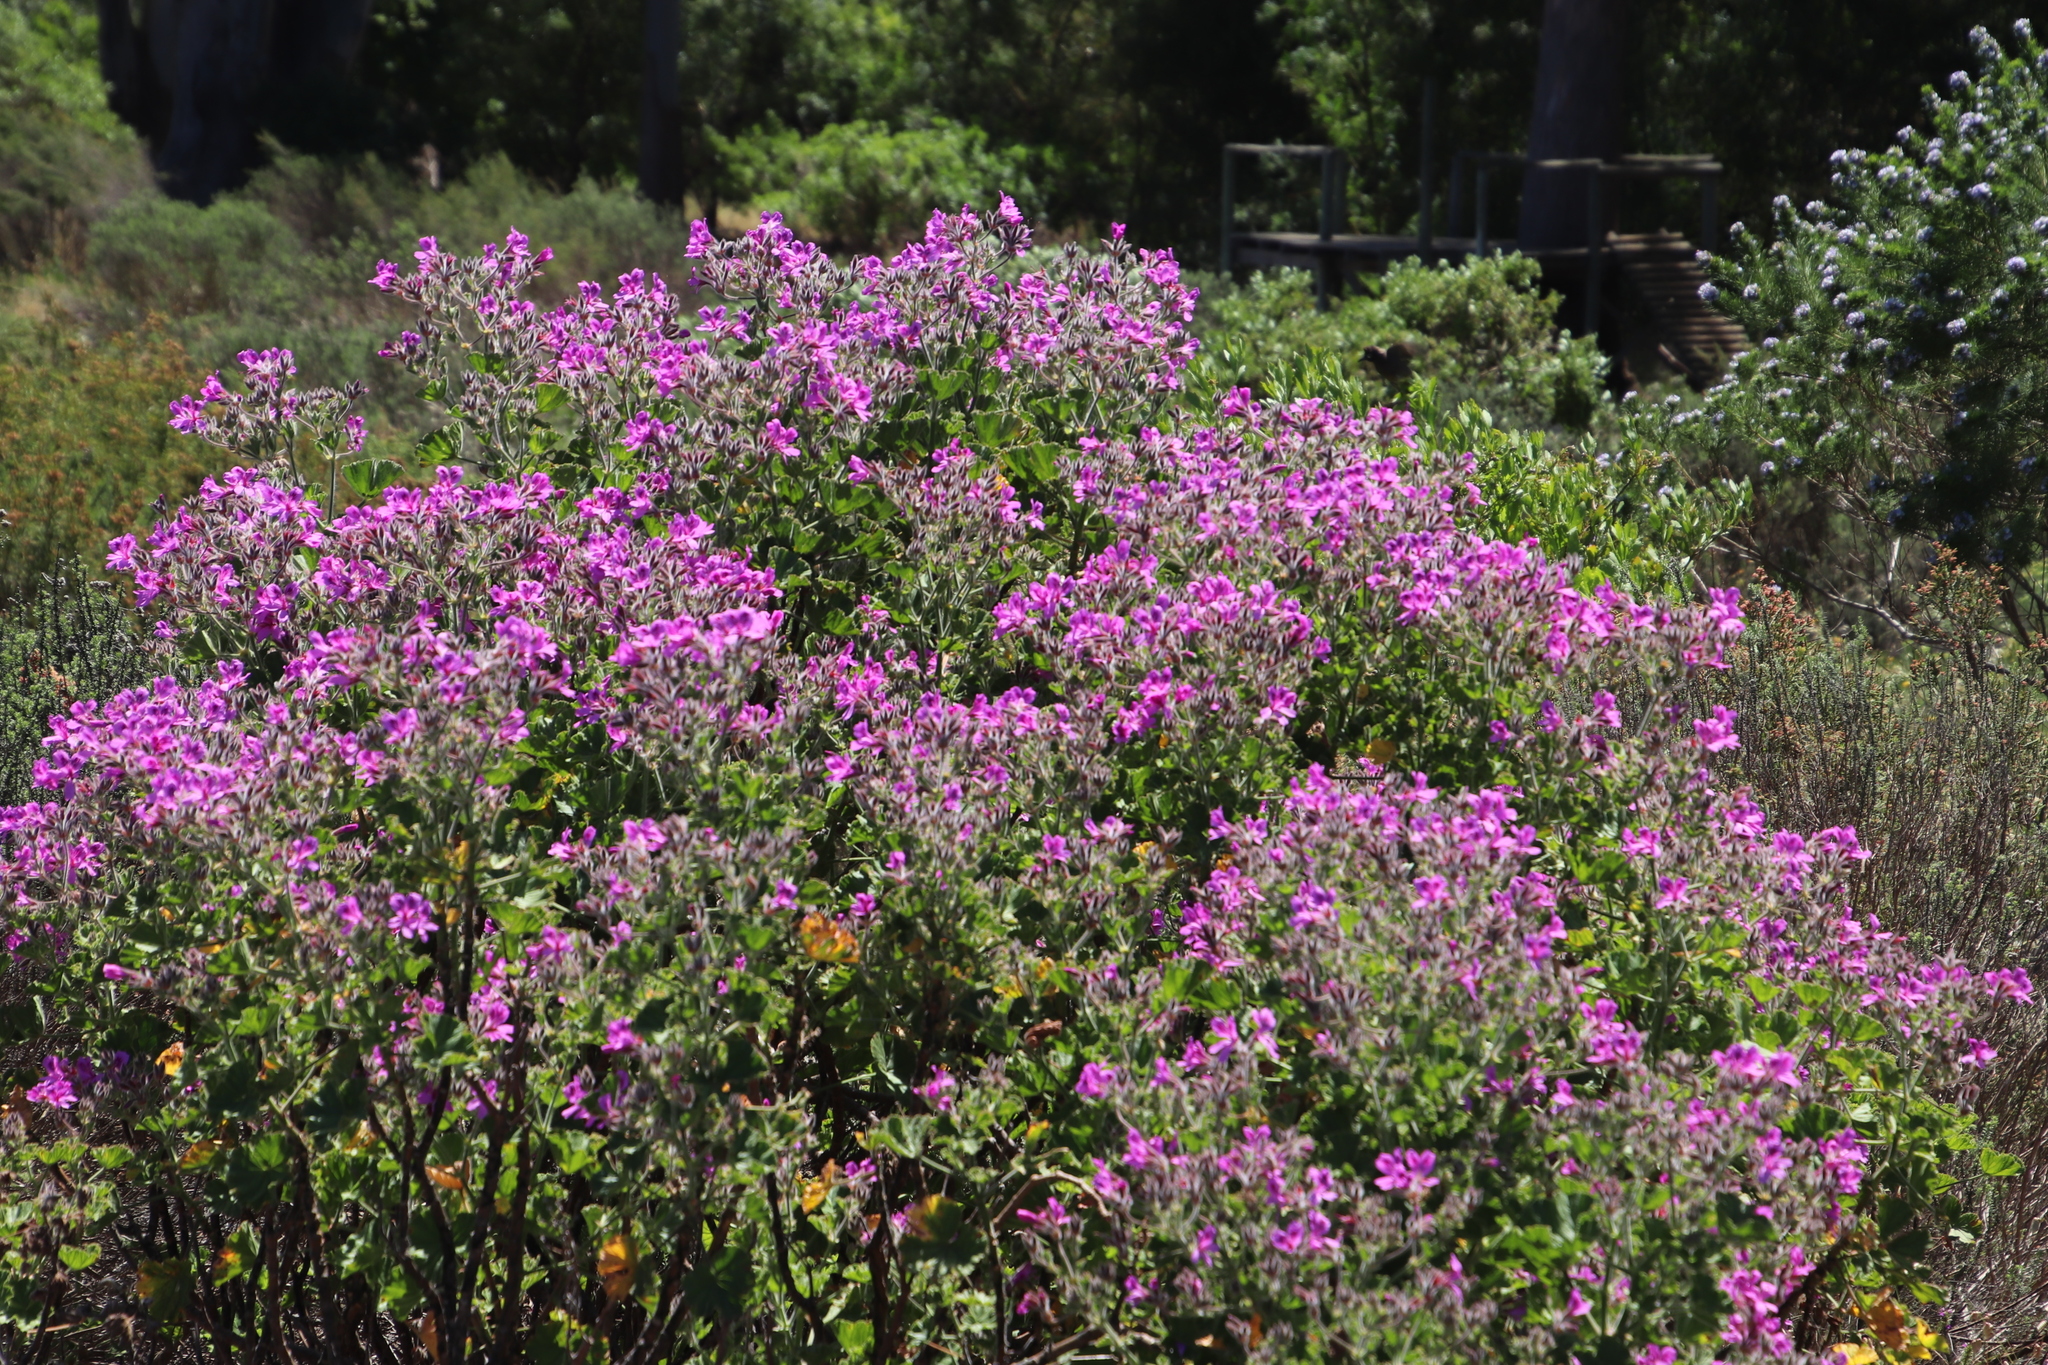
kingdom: Plantae
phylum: Tracheophyta
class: Magnoliopsida
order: Geraniales
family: Geraniaceae
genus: Pelargonium
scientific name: Pelargonium cucullatum
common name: Tree pelargonium
